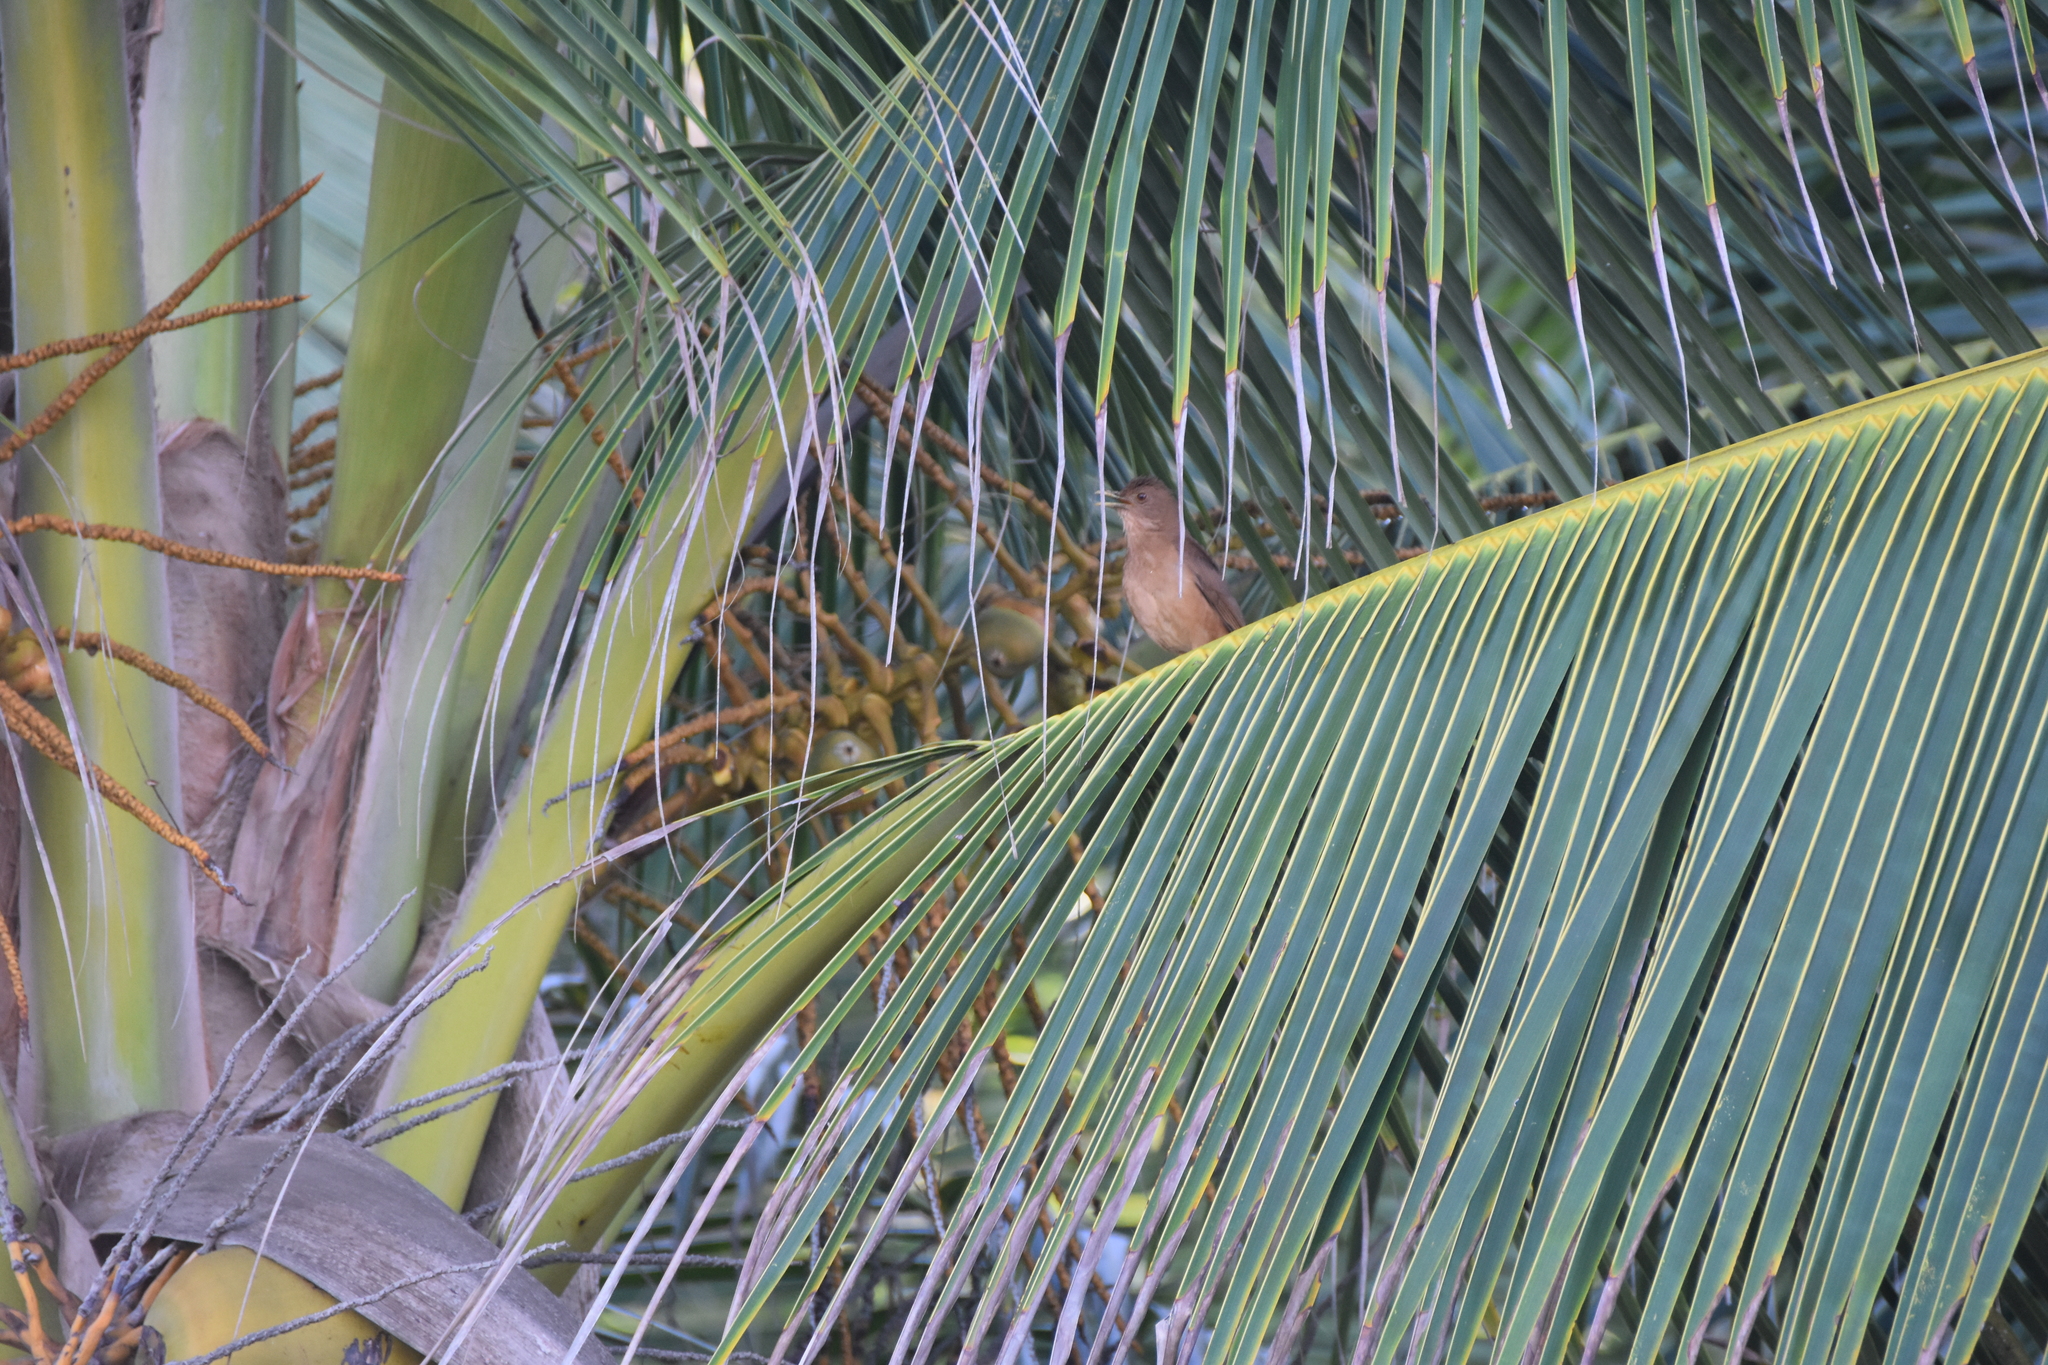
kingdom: Animalia
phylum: Chordata
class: Aves
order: Passeriformes
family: Turdidae
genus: Turdus
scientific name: Turdus grayi
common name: Clay-colored thrush
